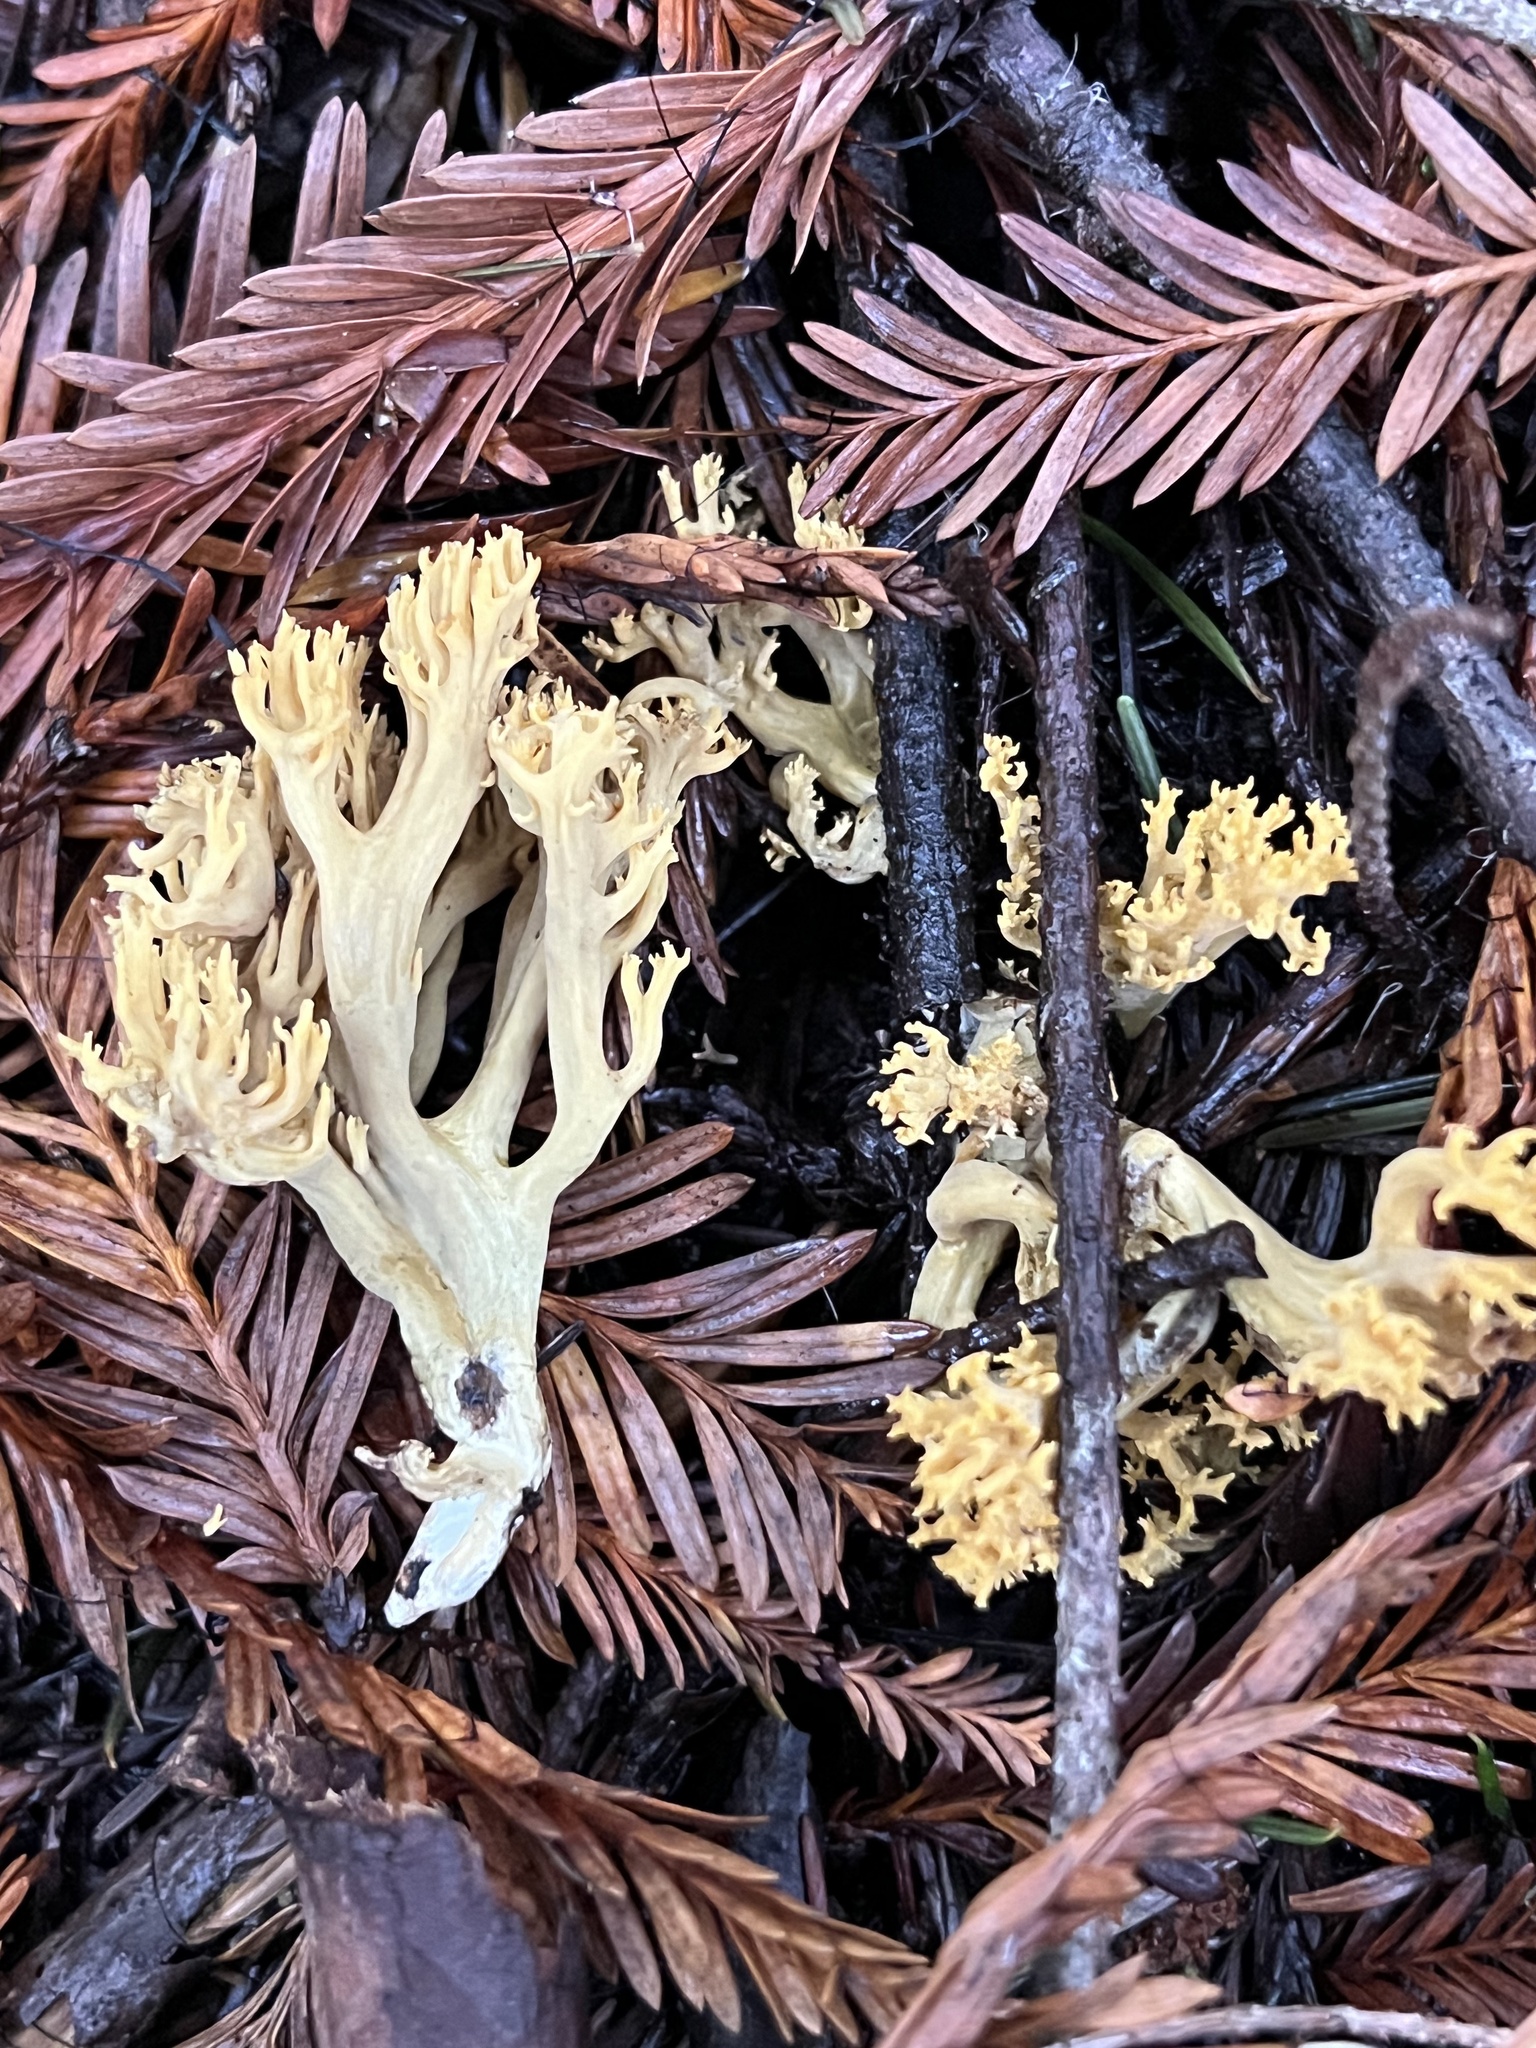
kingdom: Fungi
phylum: Basidiomycota
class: Agaricomycetes
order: Gomphales
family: Gomphaceae
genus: Phaeoclavulina
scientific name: Phaeoclavulina myceliosa
